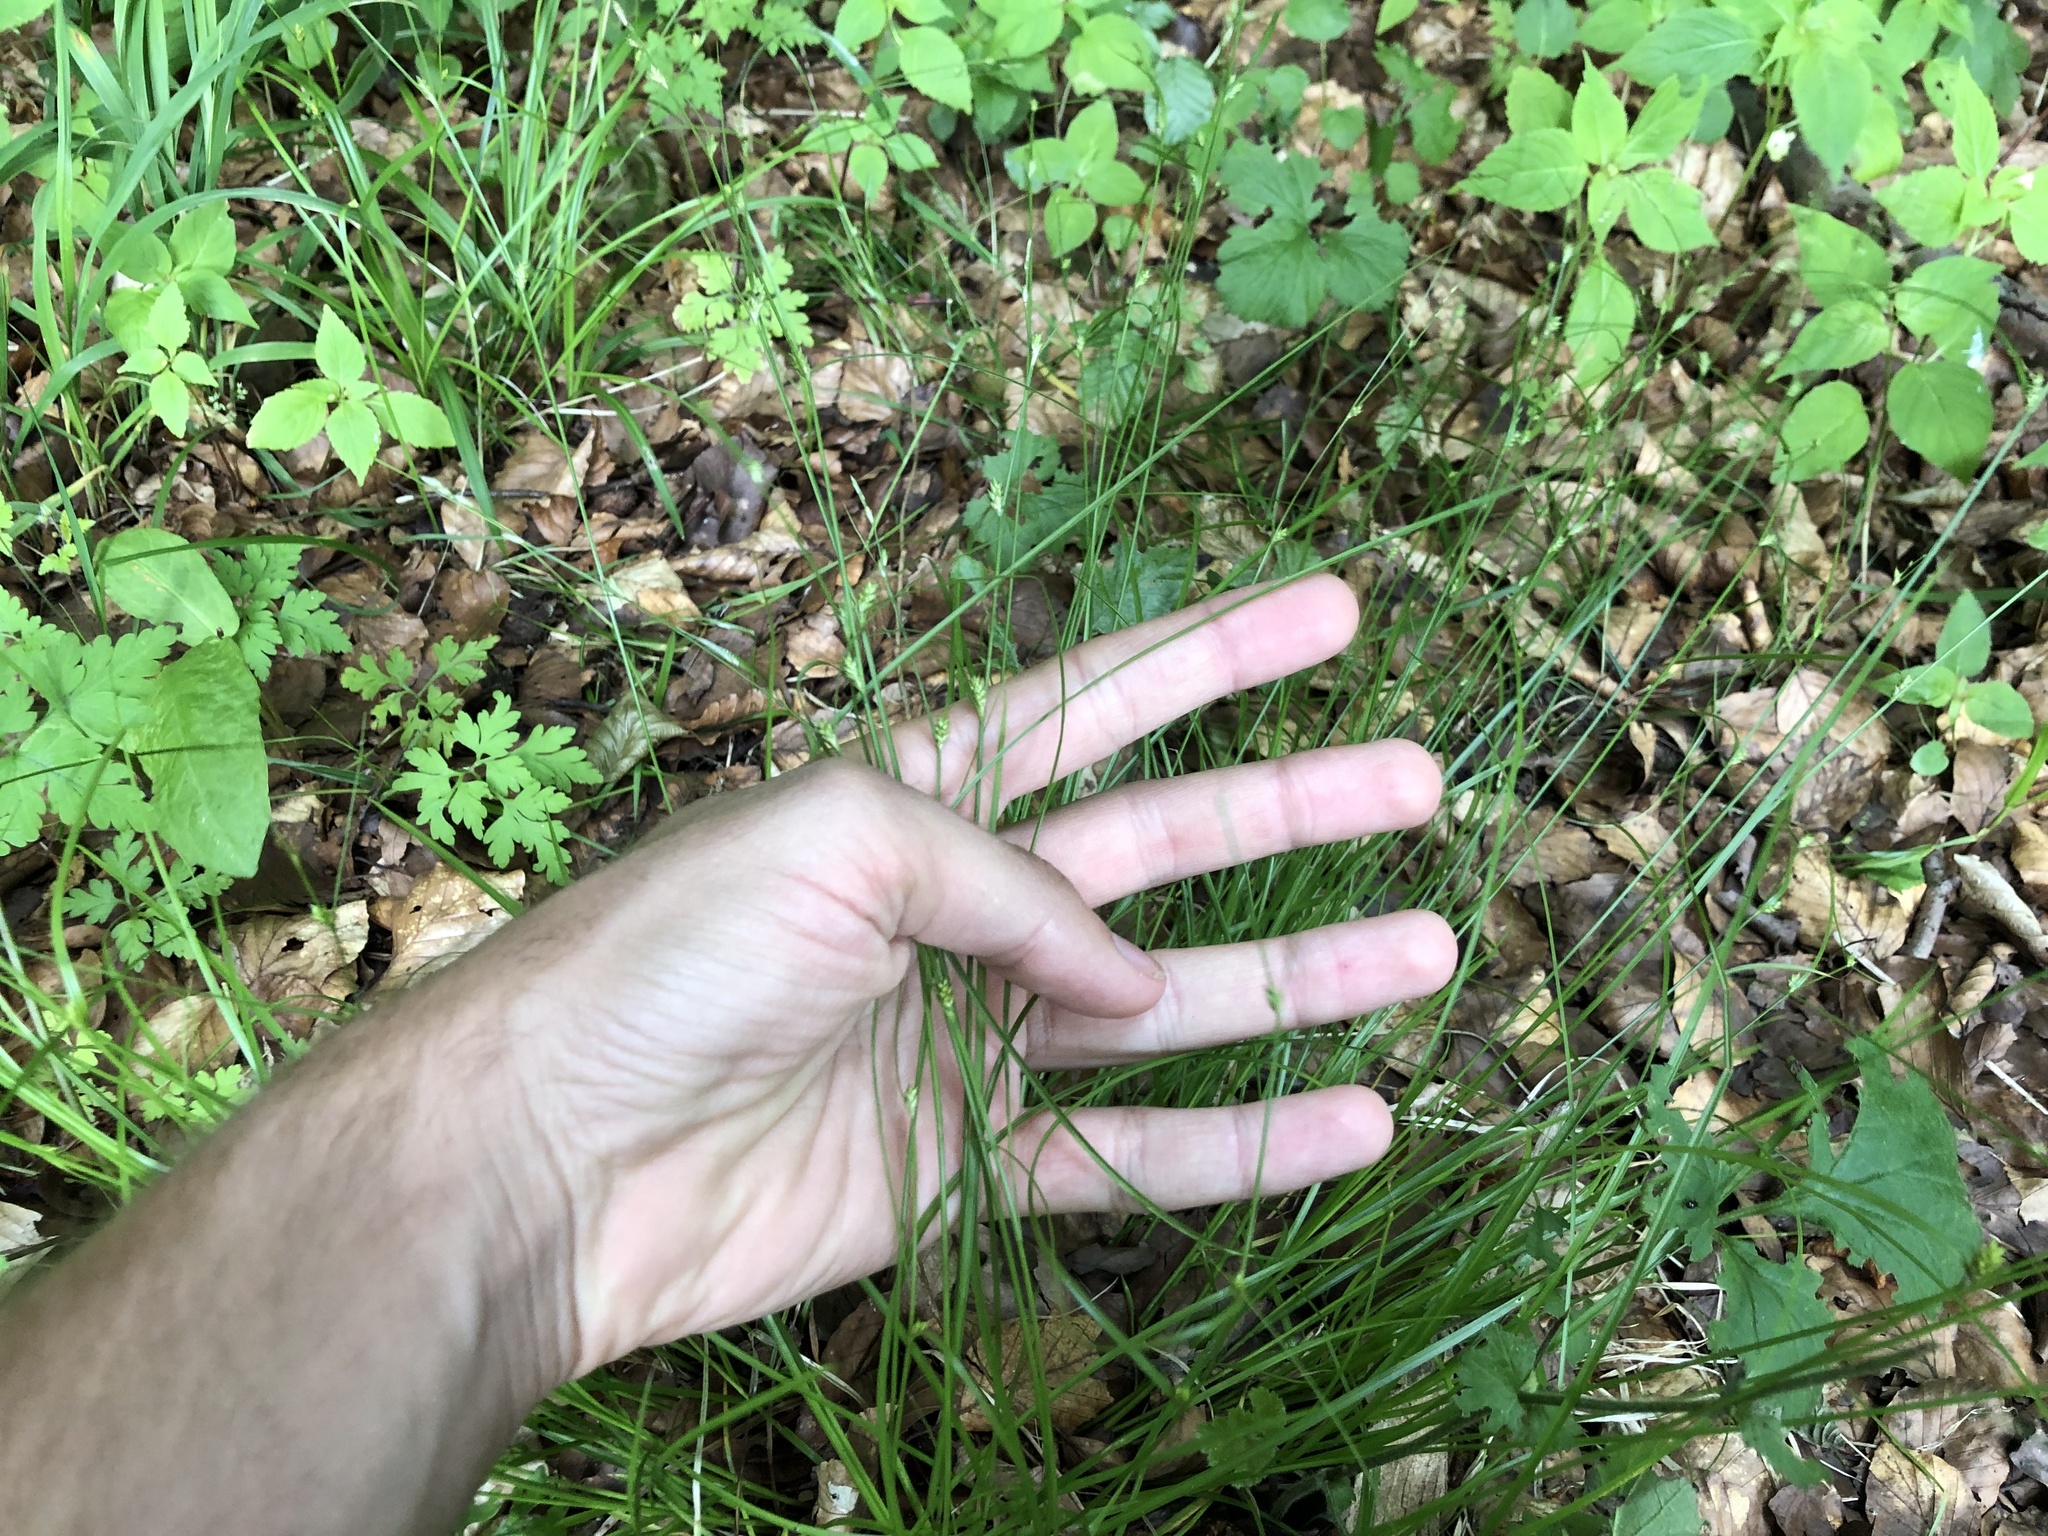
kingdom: Plantae
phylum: Tracheophyta
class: Liliopsida
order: Poales
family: Cyperaceae
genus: Carex
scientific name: Carex remota
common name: Remote sedge
